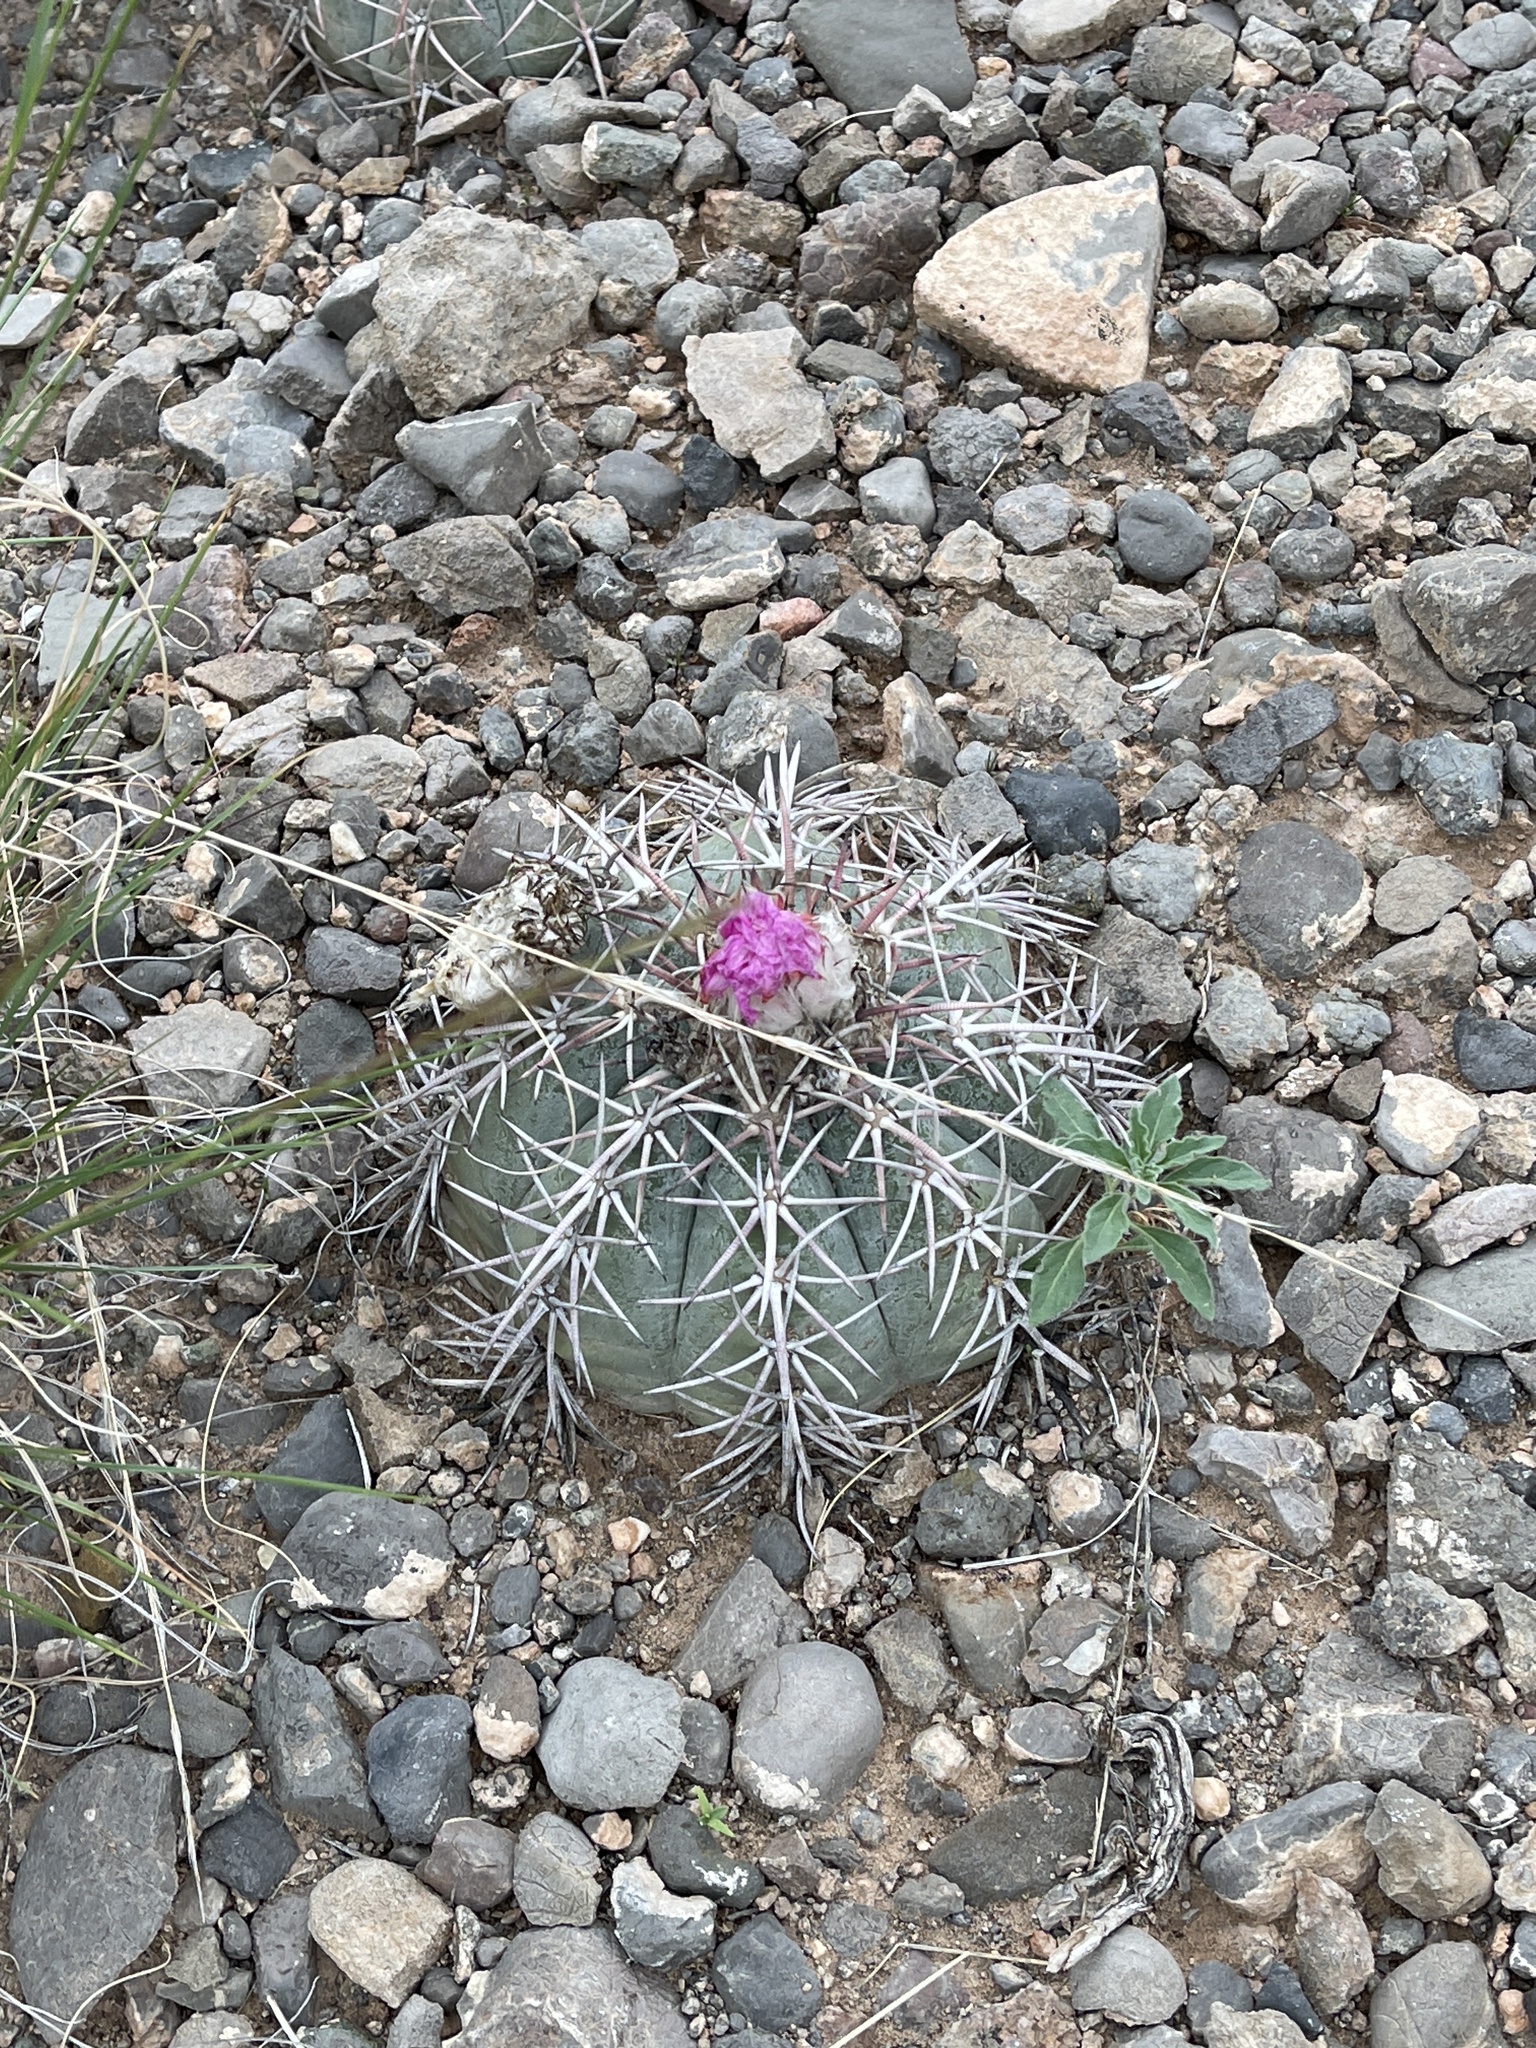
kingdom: Plantae
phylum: Tracheophyta
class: Magnoliopsida
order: Caryophyllales
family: Cactaceae
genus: Echinocactus
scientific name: Echinocactus horizonthalonius
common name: Devilshead
